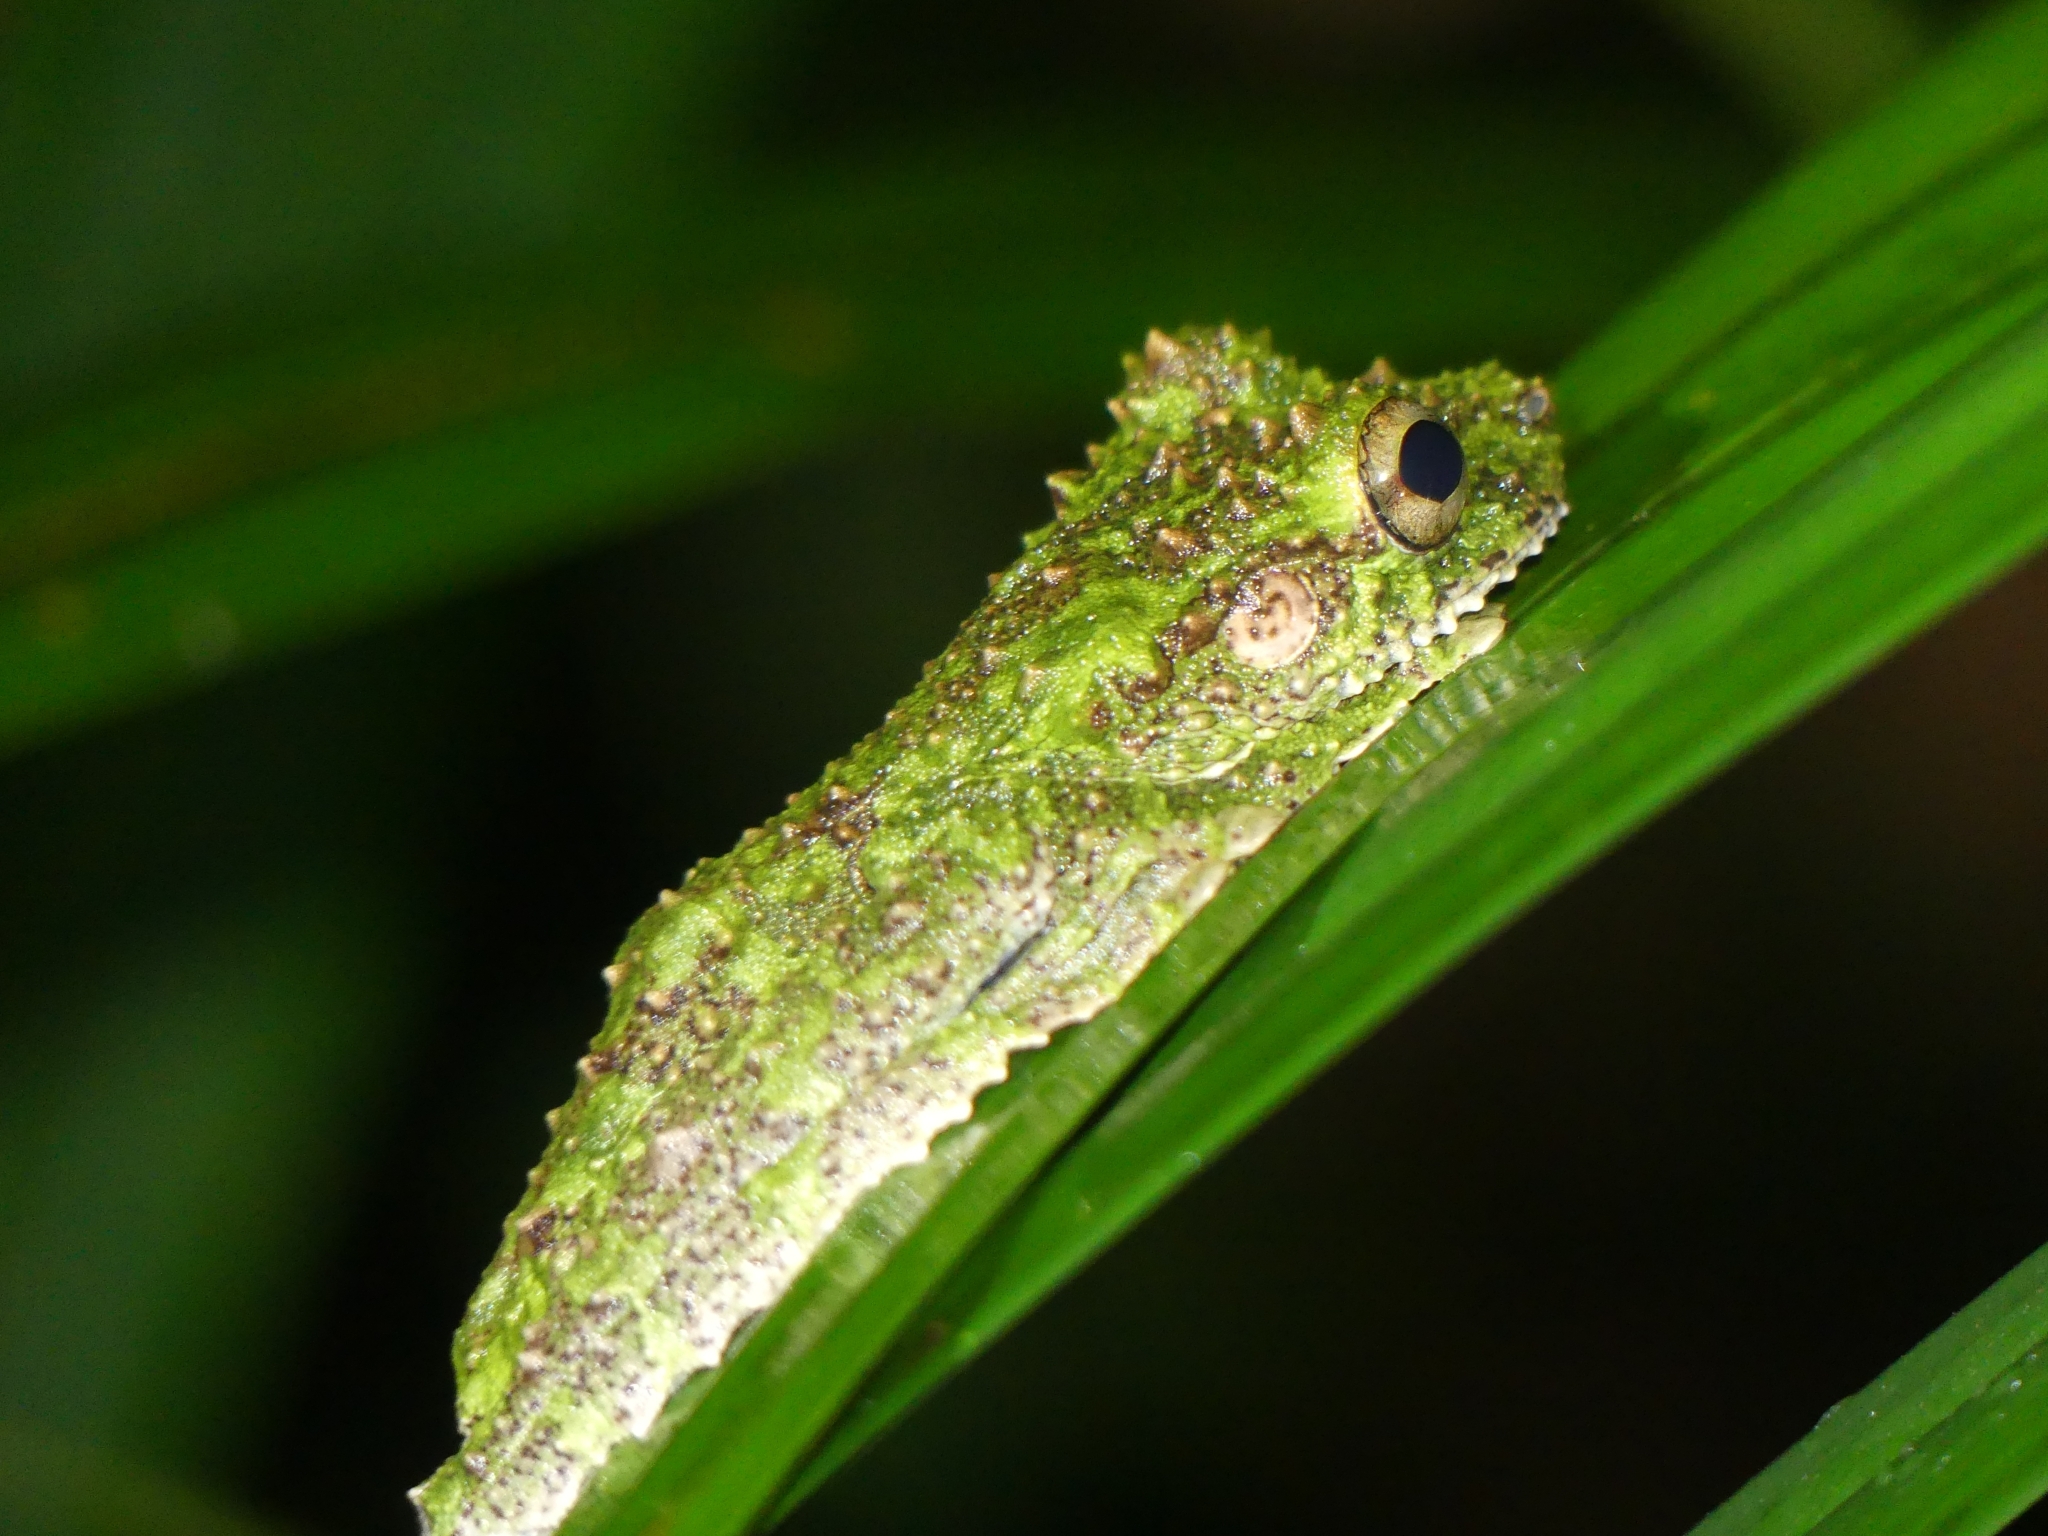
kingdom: Animalia
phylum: Chordata
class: Amphibia
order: Anura
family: Hylidae
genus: Osteocephalus
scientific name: Osteocephalus cabrerai
